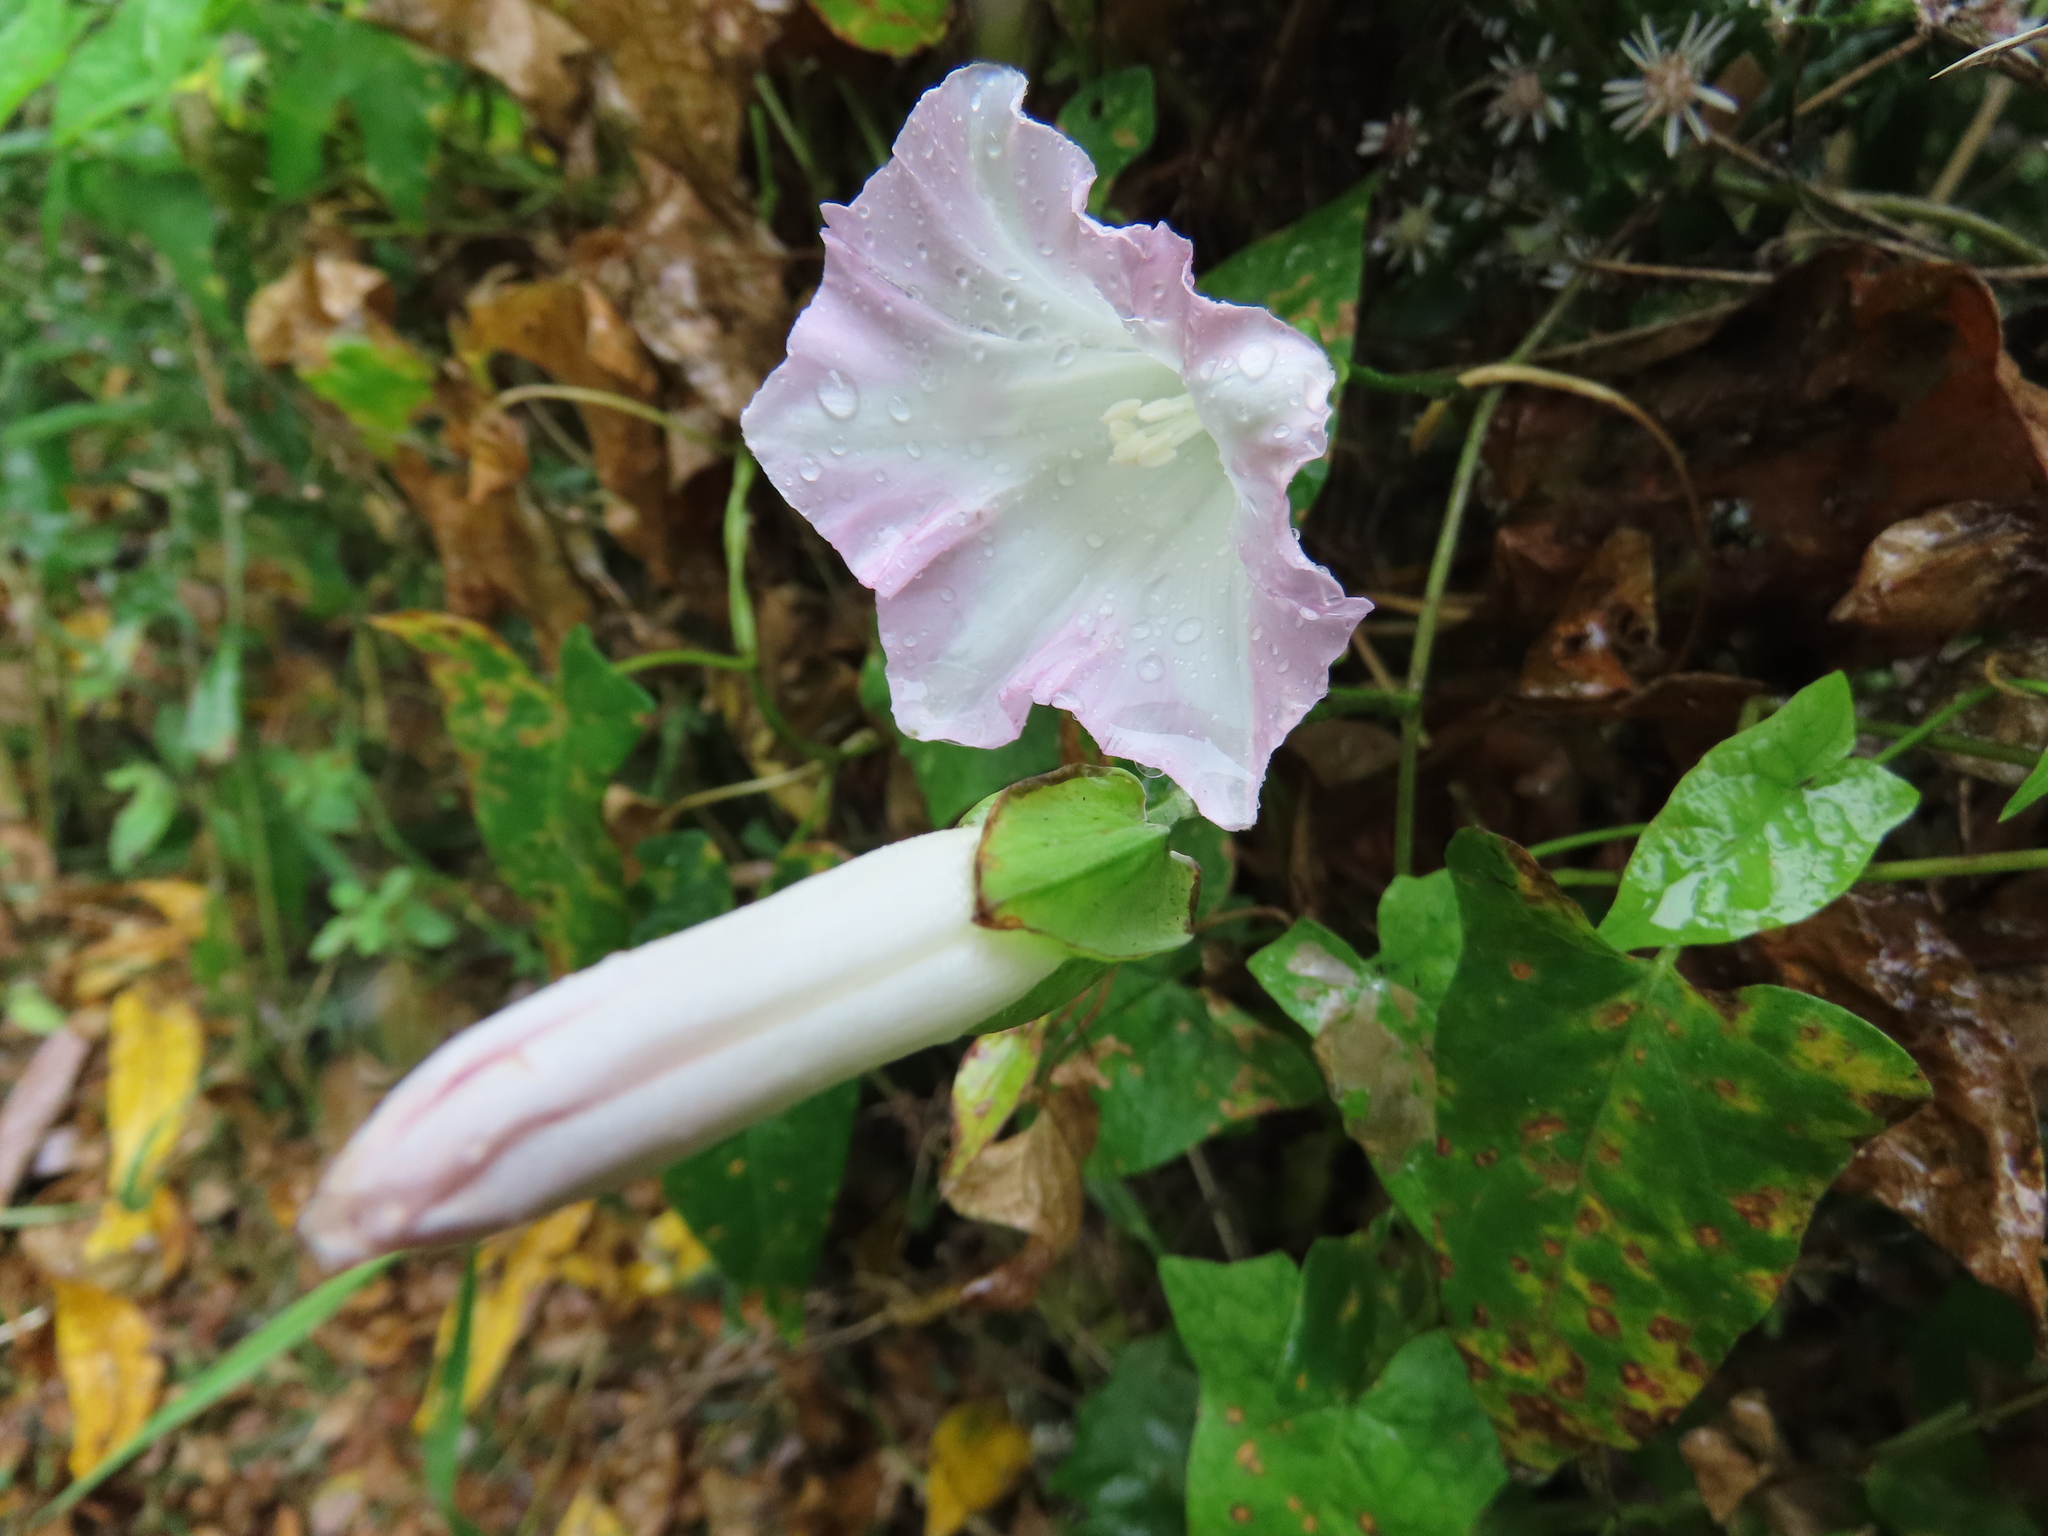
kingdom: Plantae
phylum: Tracheophyta
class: Magnoliopsida
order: Solanales
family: Convolvulaceae
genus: Calystegia
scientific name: Calystegia sepium
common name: Hedge bindweed
